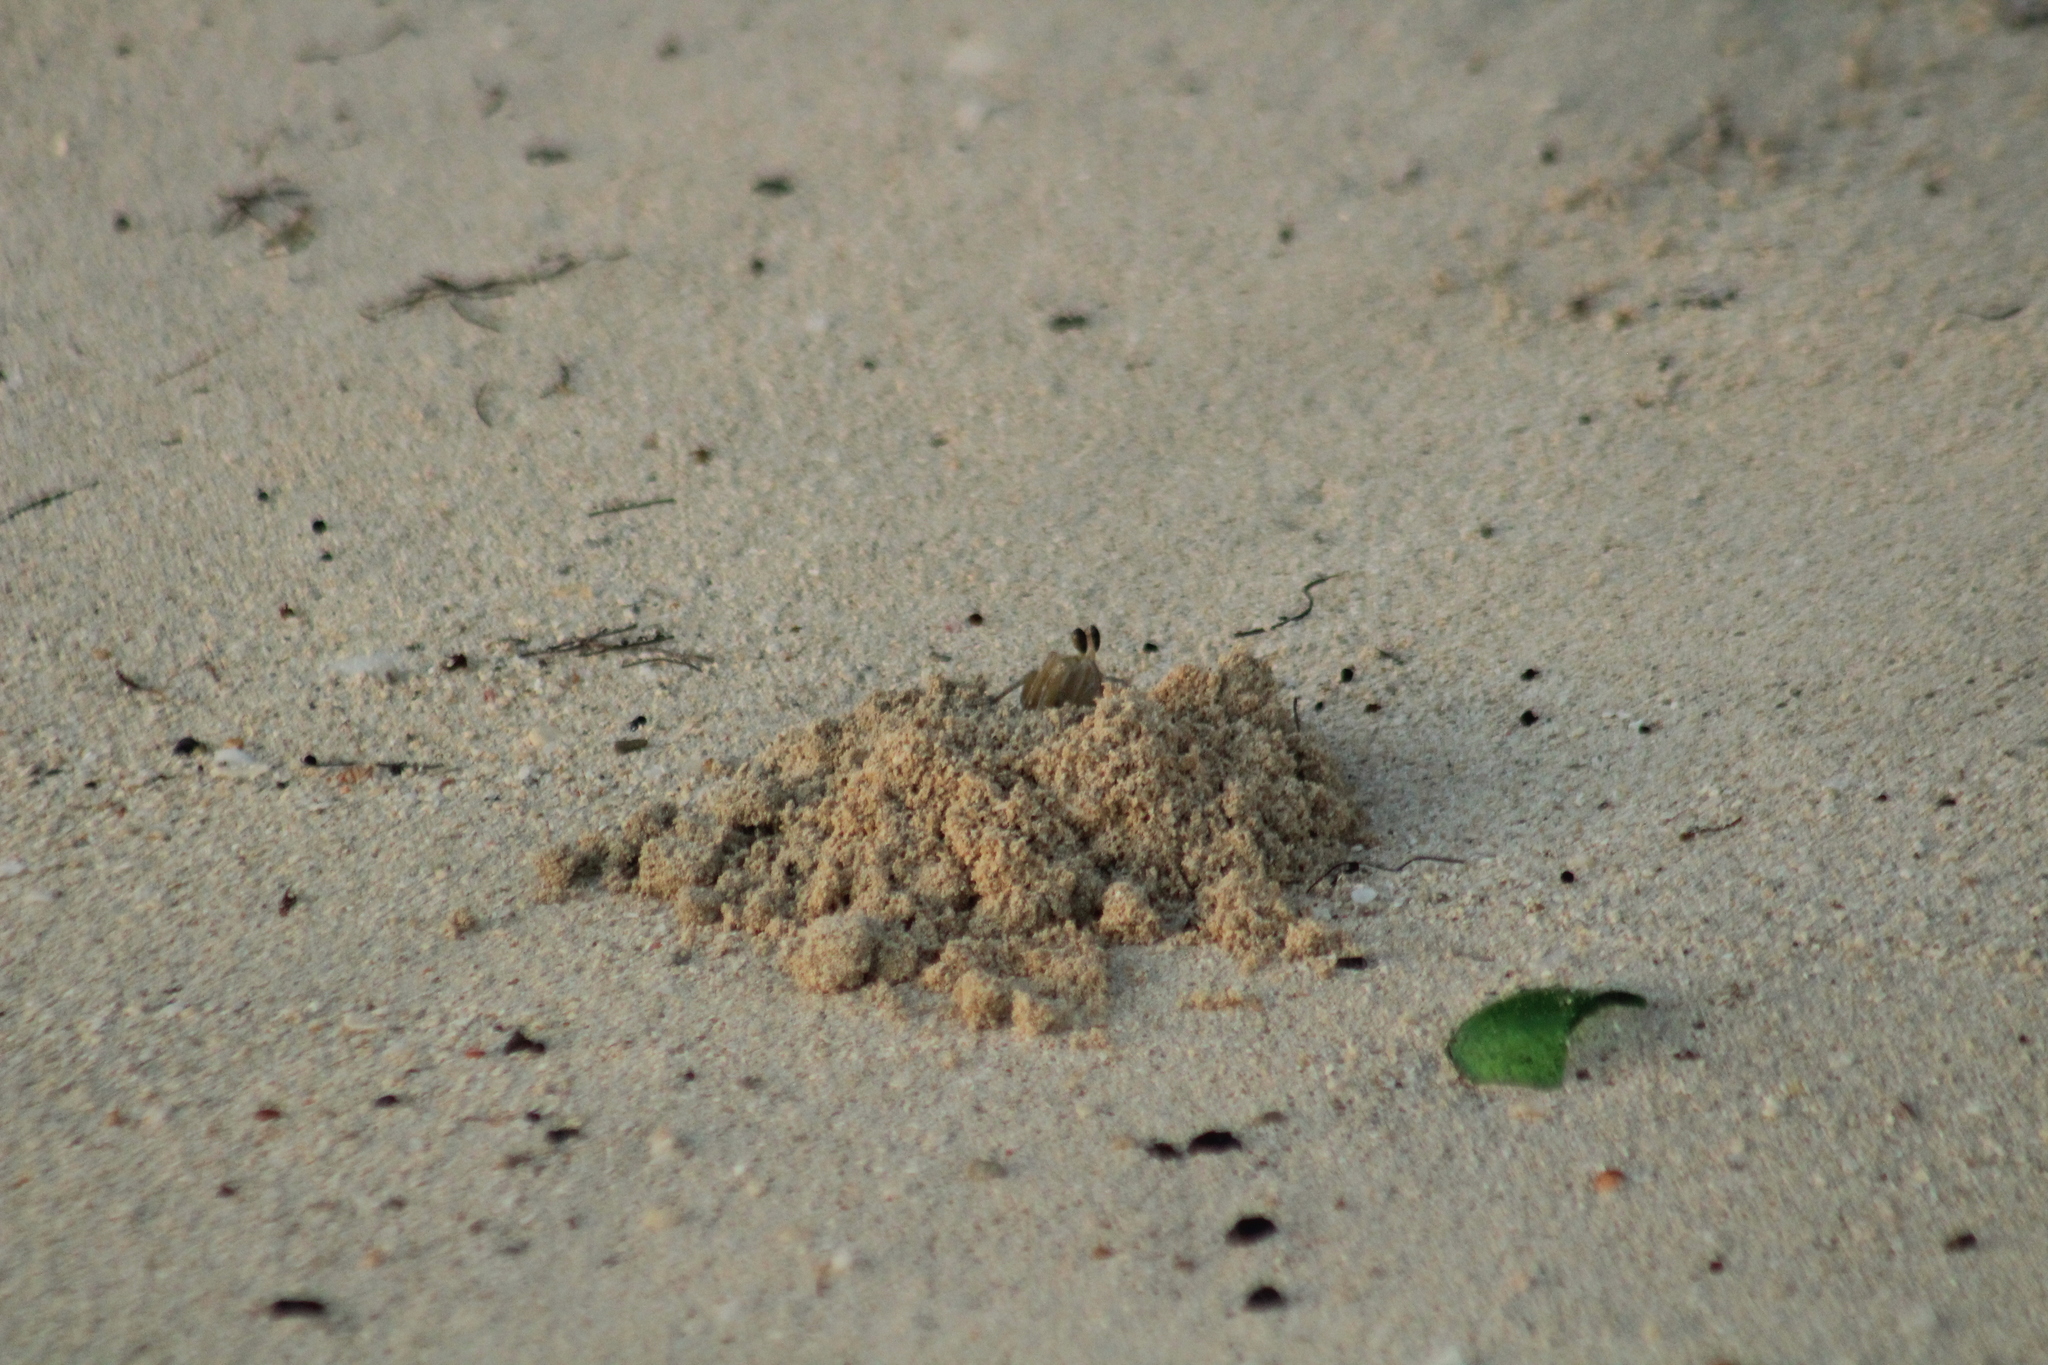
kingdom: Animalia
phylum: Arthropoda
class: Malacostraca
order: Decapoda
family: Ocypodidae
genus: Ocypode
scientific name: Ocypode quadrata
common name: Ghost crab
